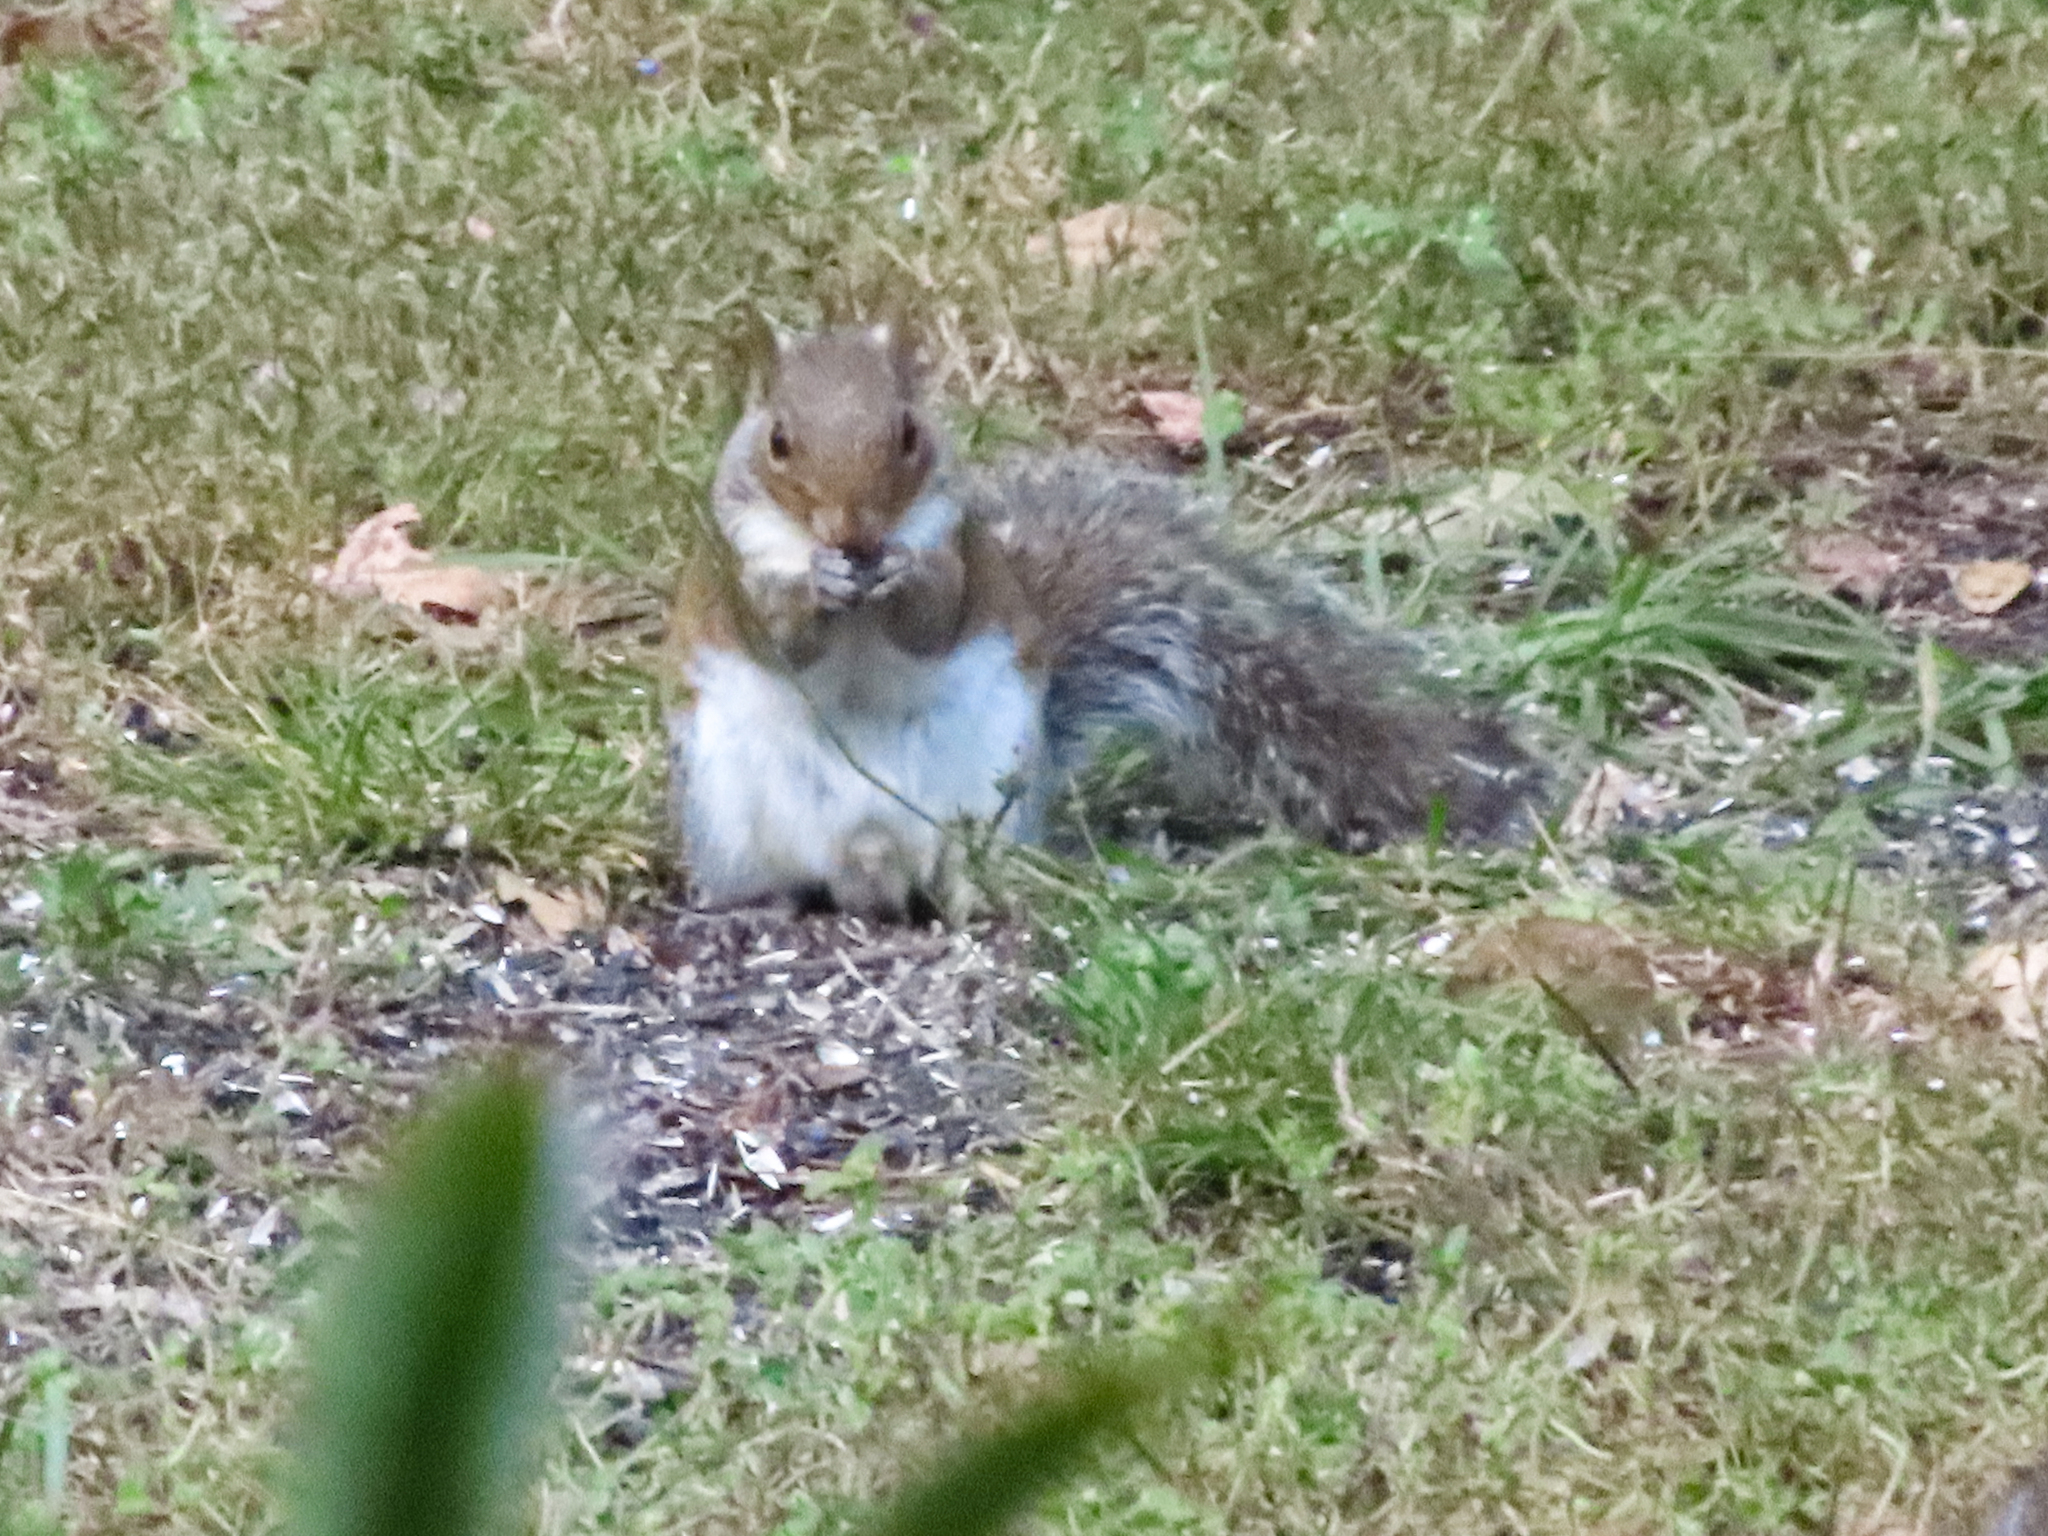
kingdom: Animalia
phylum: Chordata
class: Mammalia
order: Rodentia
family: Sciuridae
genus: Sciurus
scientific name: Sciurus carolinensis
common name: Eastern gray squirrel
